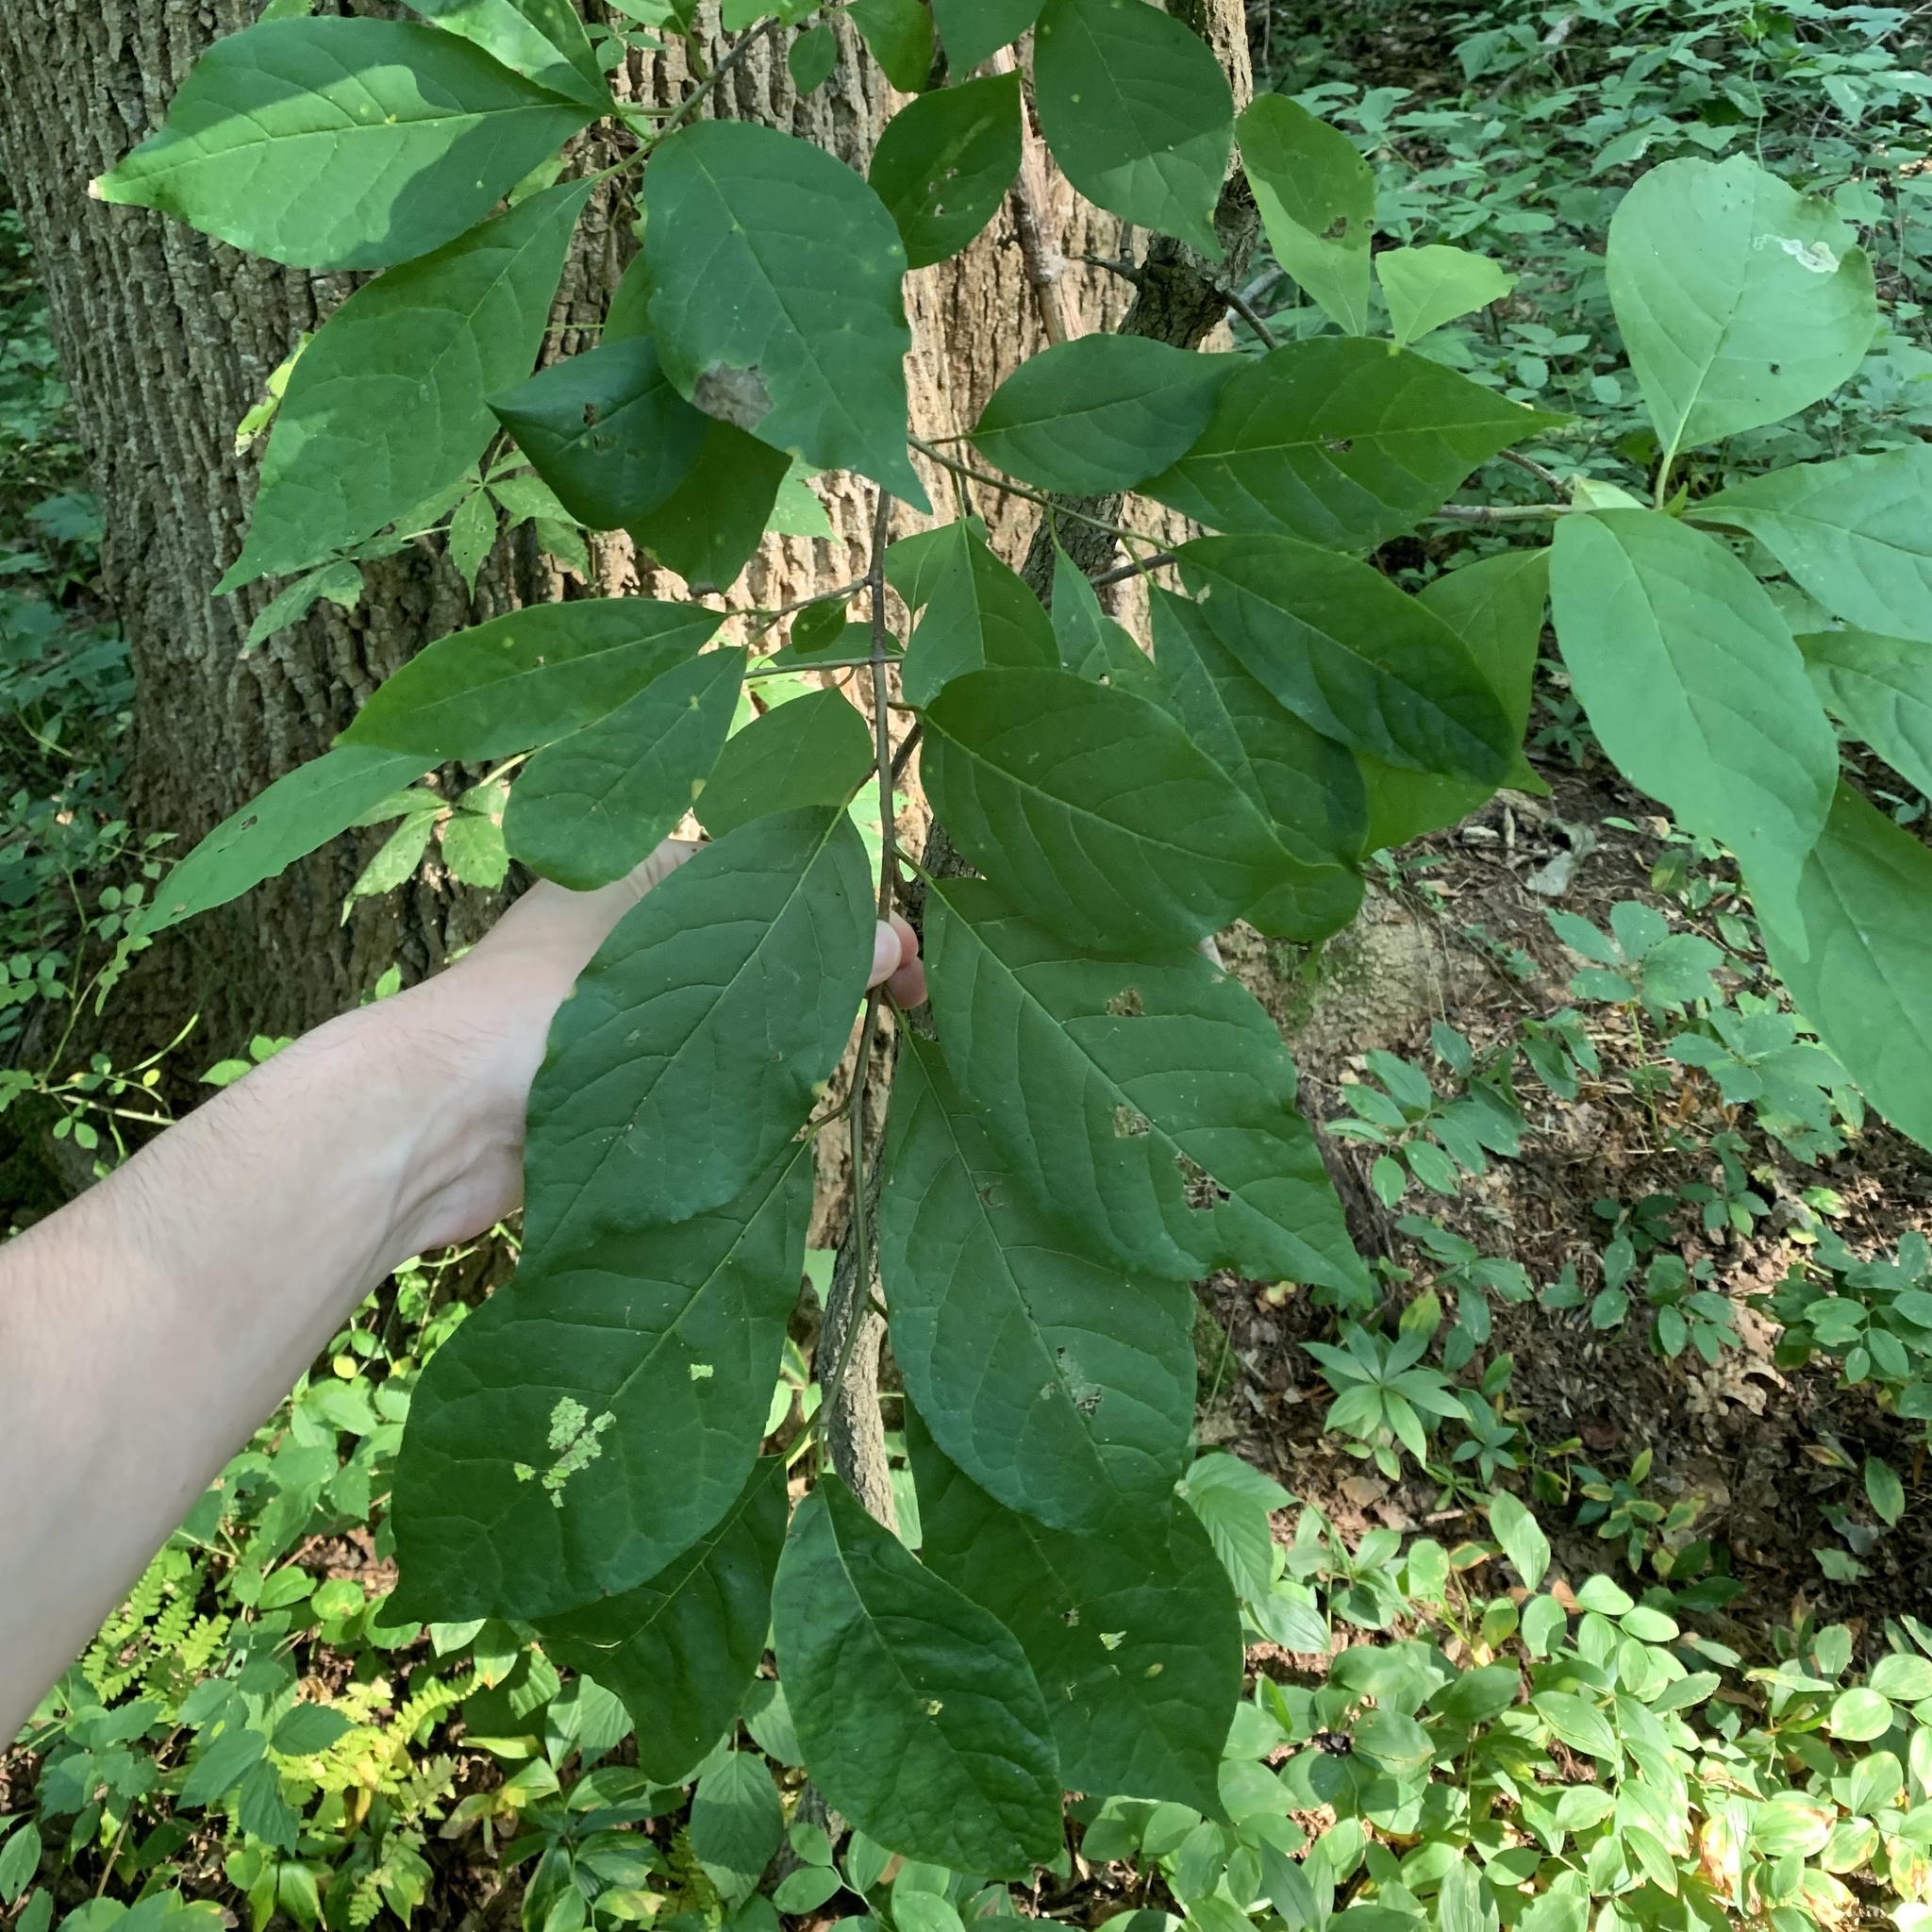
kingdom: Plantae
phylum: Tracheophyta
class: Magnoliopsida
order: Laurales
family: Lauraceae
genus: Lindera
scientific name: Lindera benzoin
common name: Spicebush
